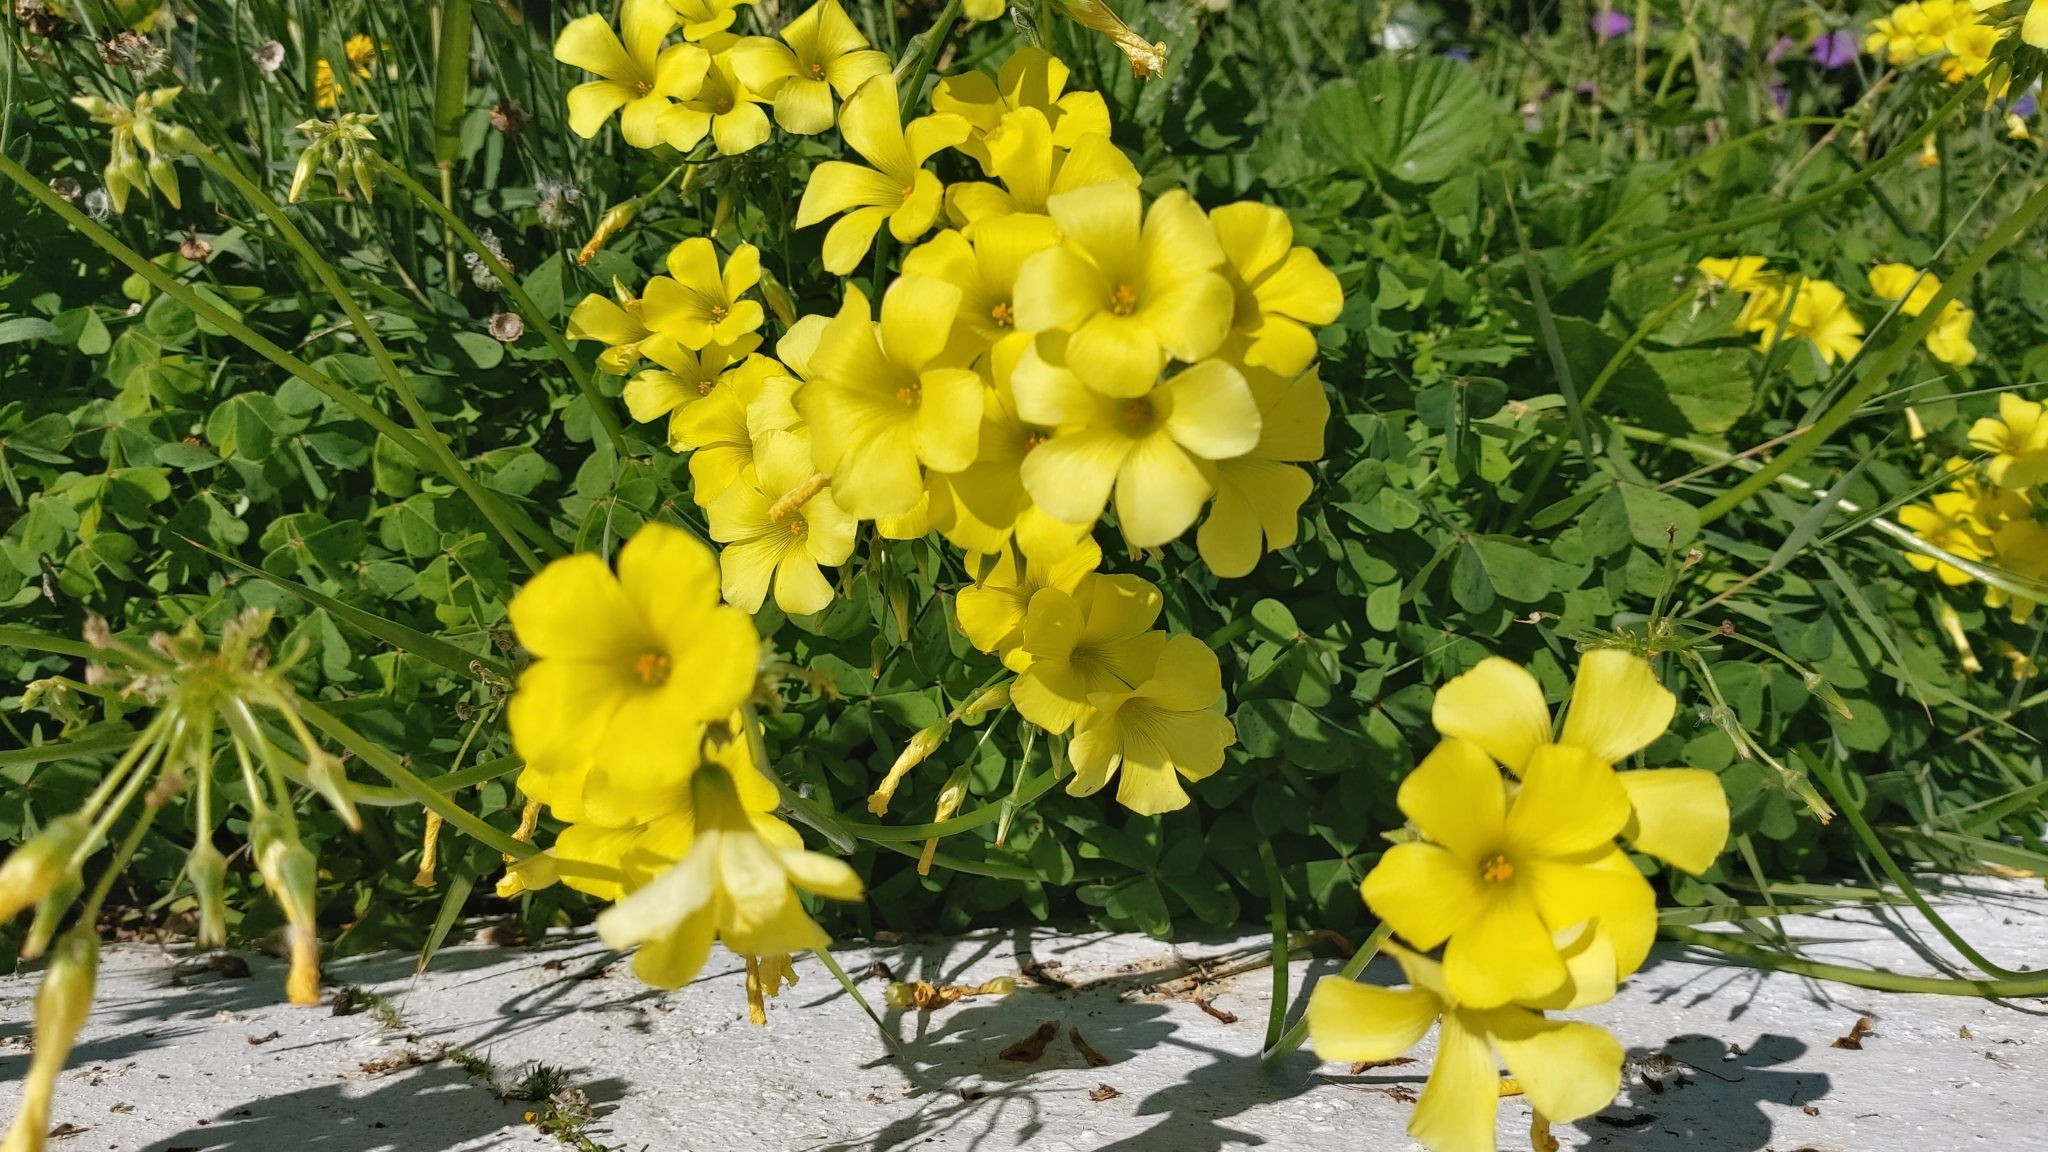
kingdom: Plantae
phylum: Tracheophyta
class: Magnoliopsida
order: Oxalidales
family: Oxalidaceae
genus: Oxalis
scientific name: Oxalis pes-caprae
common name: Bermuda-buttercup
